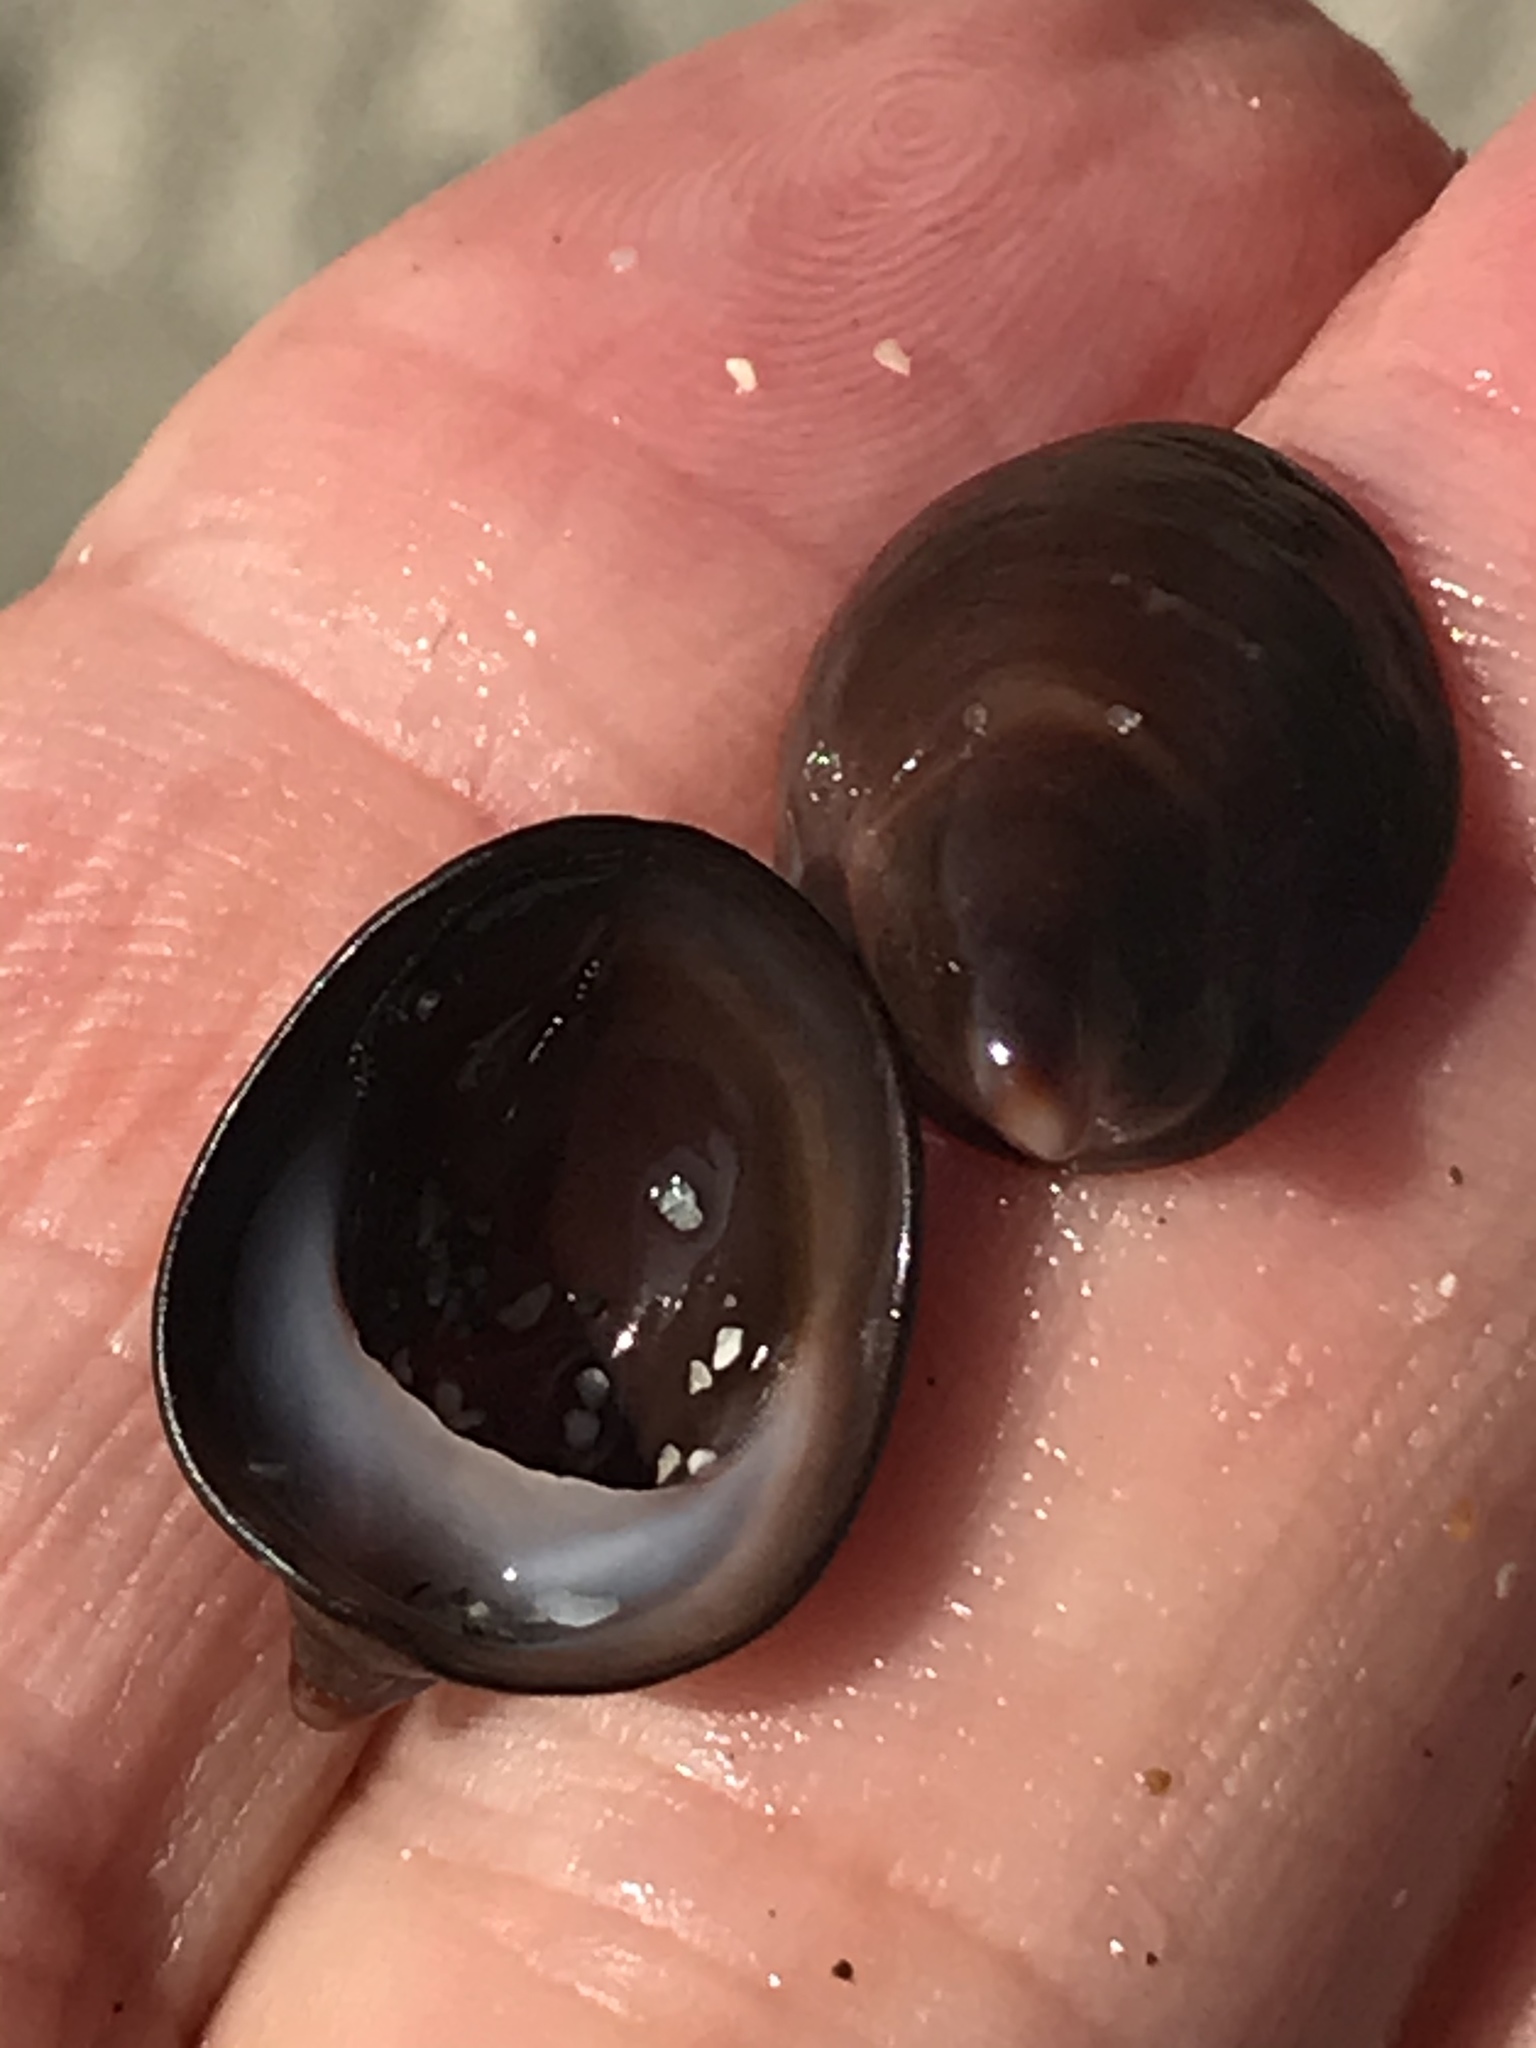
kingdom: Animalia
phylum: Mollusca
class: Gastropoda
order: Littorinimorpha
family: Calyptraeidae
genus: Crepidula
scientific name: Crepidula adunca
